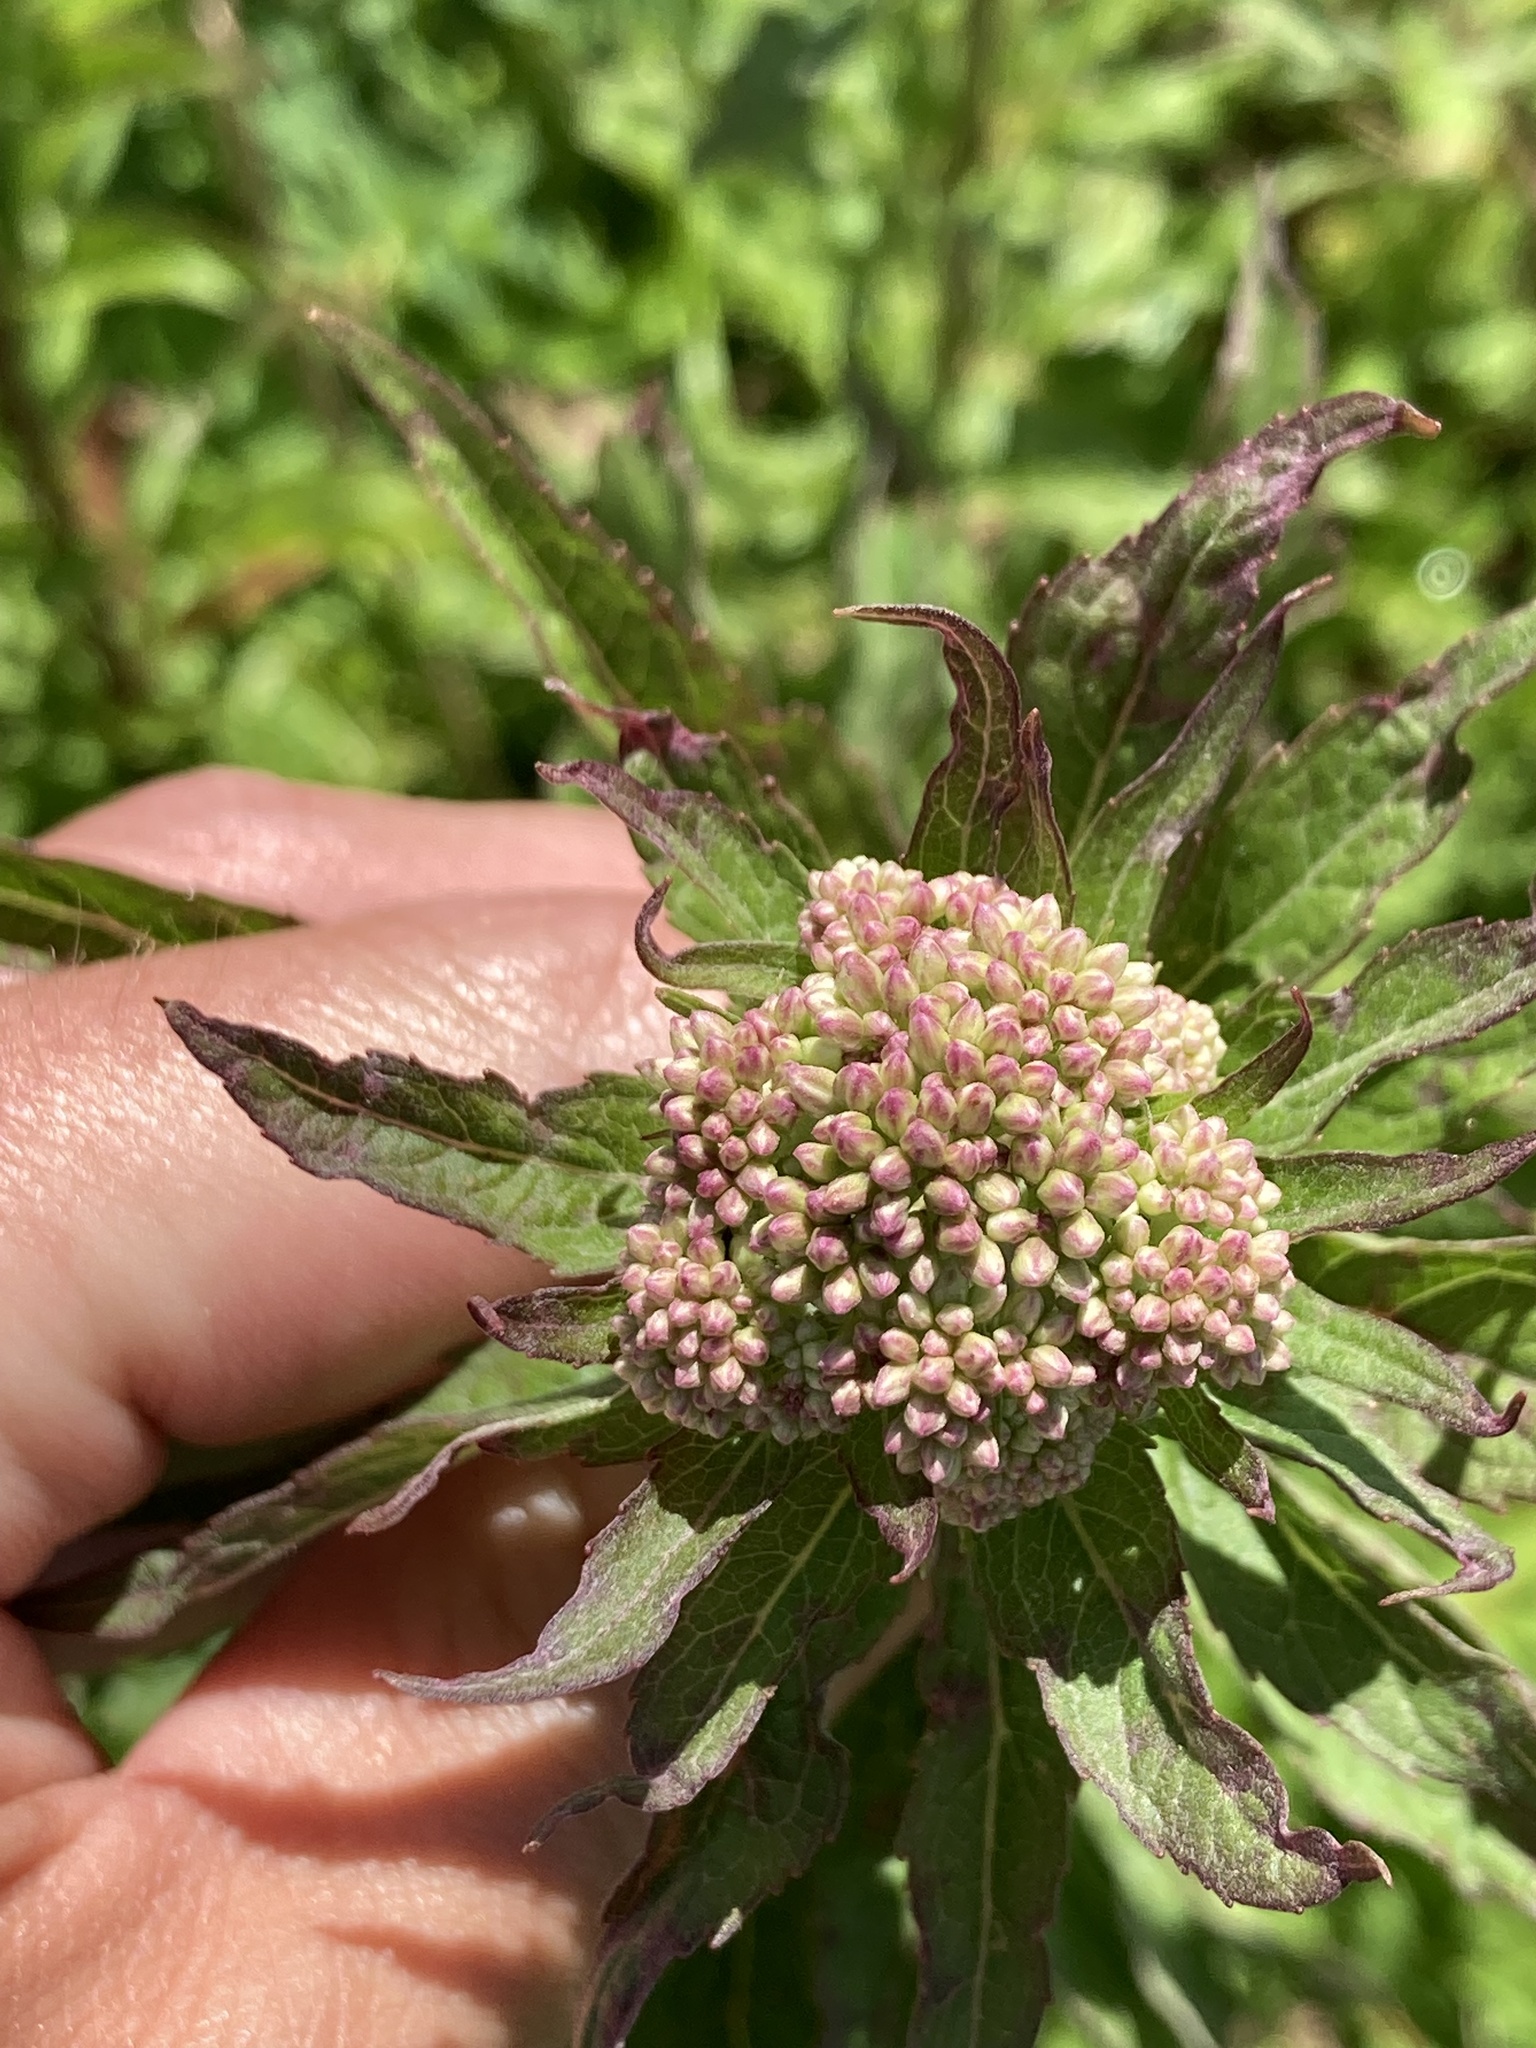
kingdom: Plantae
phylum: Tracheophyta
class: Magnoliopsida
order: Asterales
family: Asteraceae
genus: Eupatorium
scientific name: Eupatorium cannabinum
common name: Hemp-agrimony
